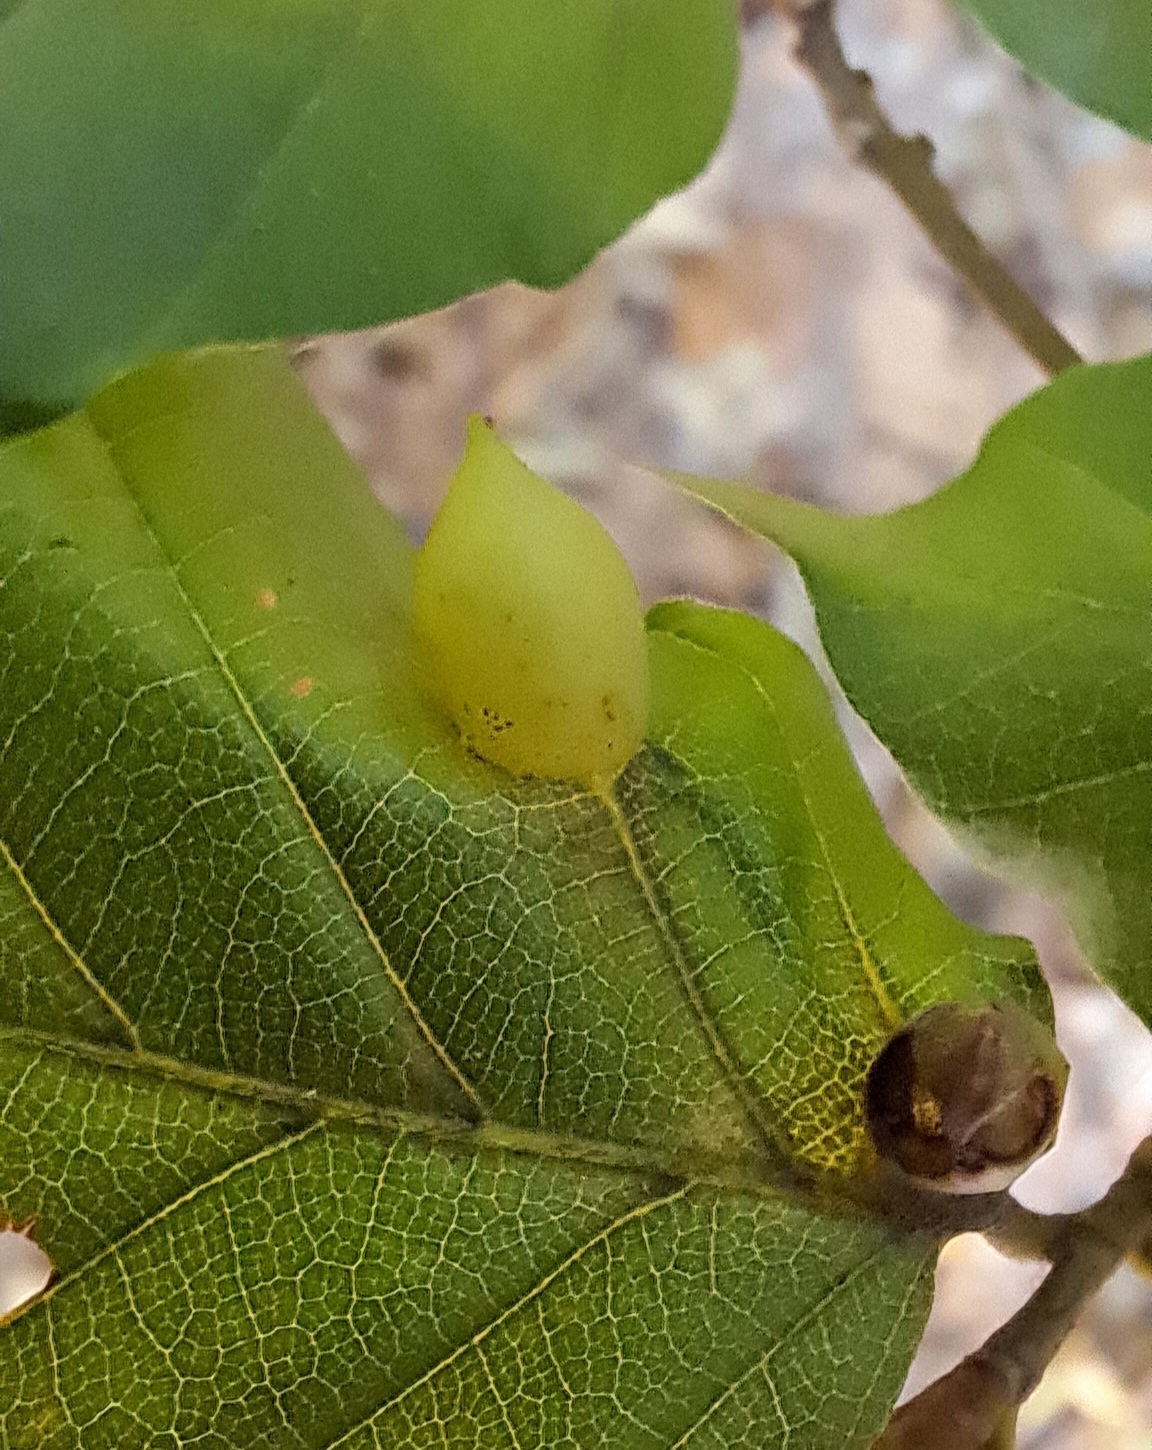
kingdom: Animalia
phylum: Arthropoda
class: Insecta
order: Diptera
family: Cecidomyiidae
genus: Mikiola
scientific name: Mikiola fagi
